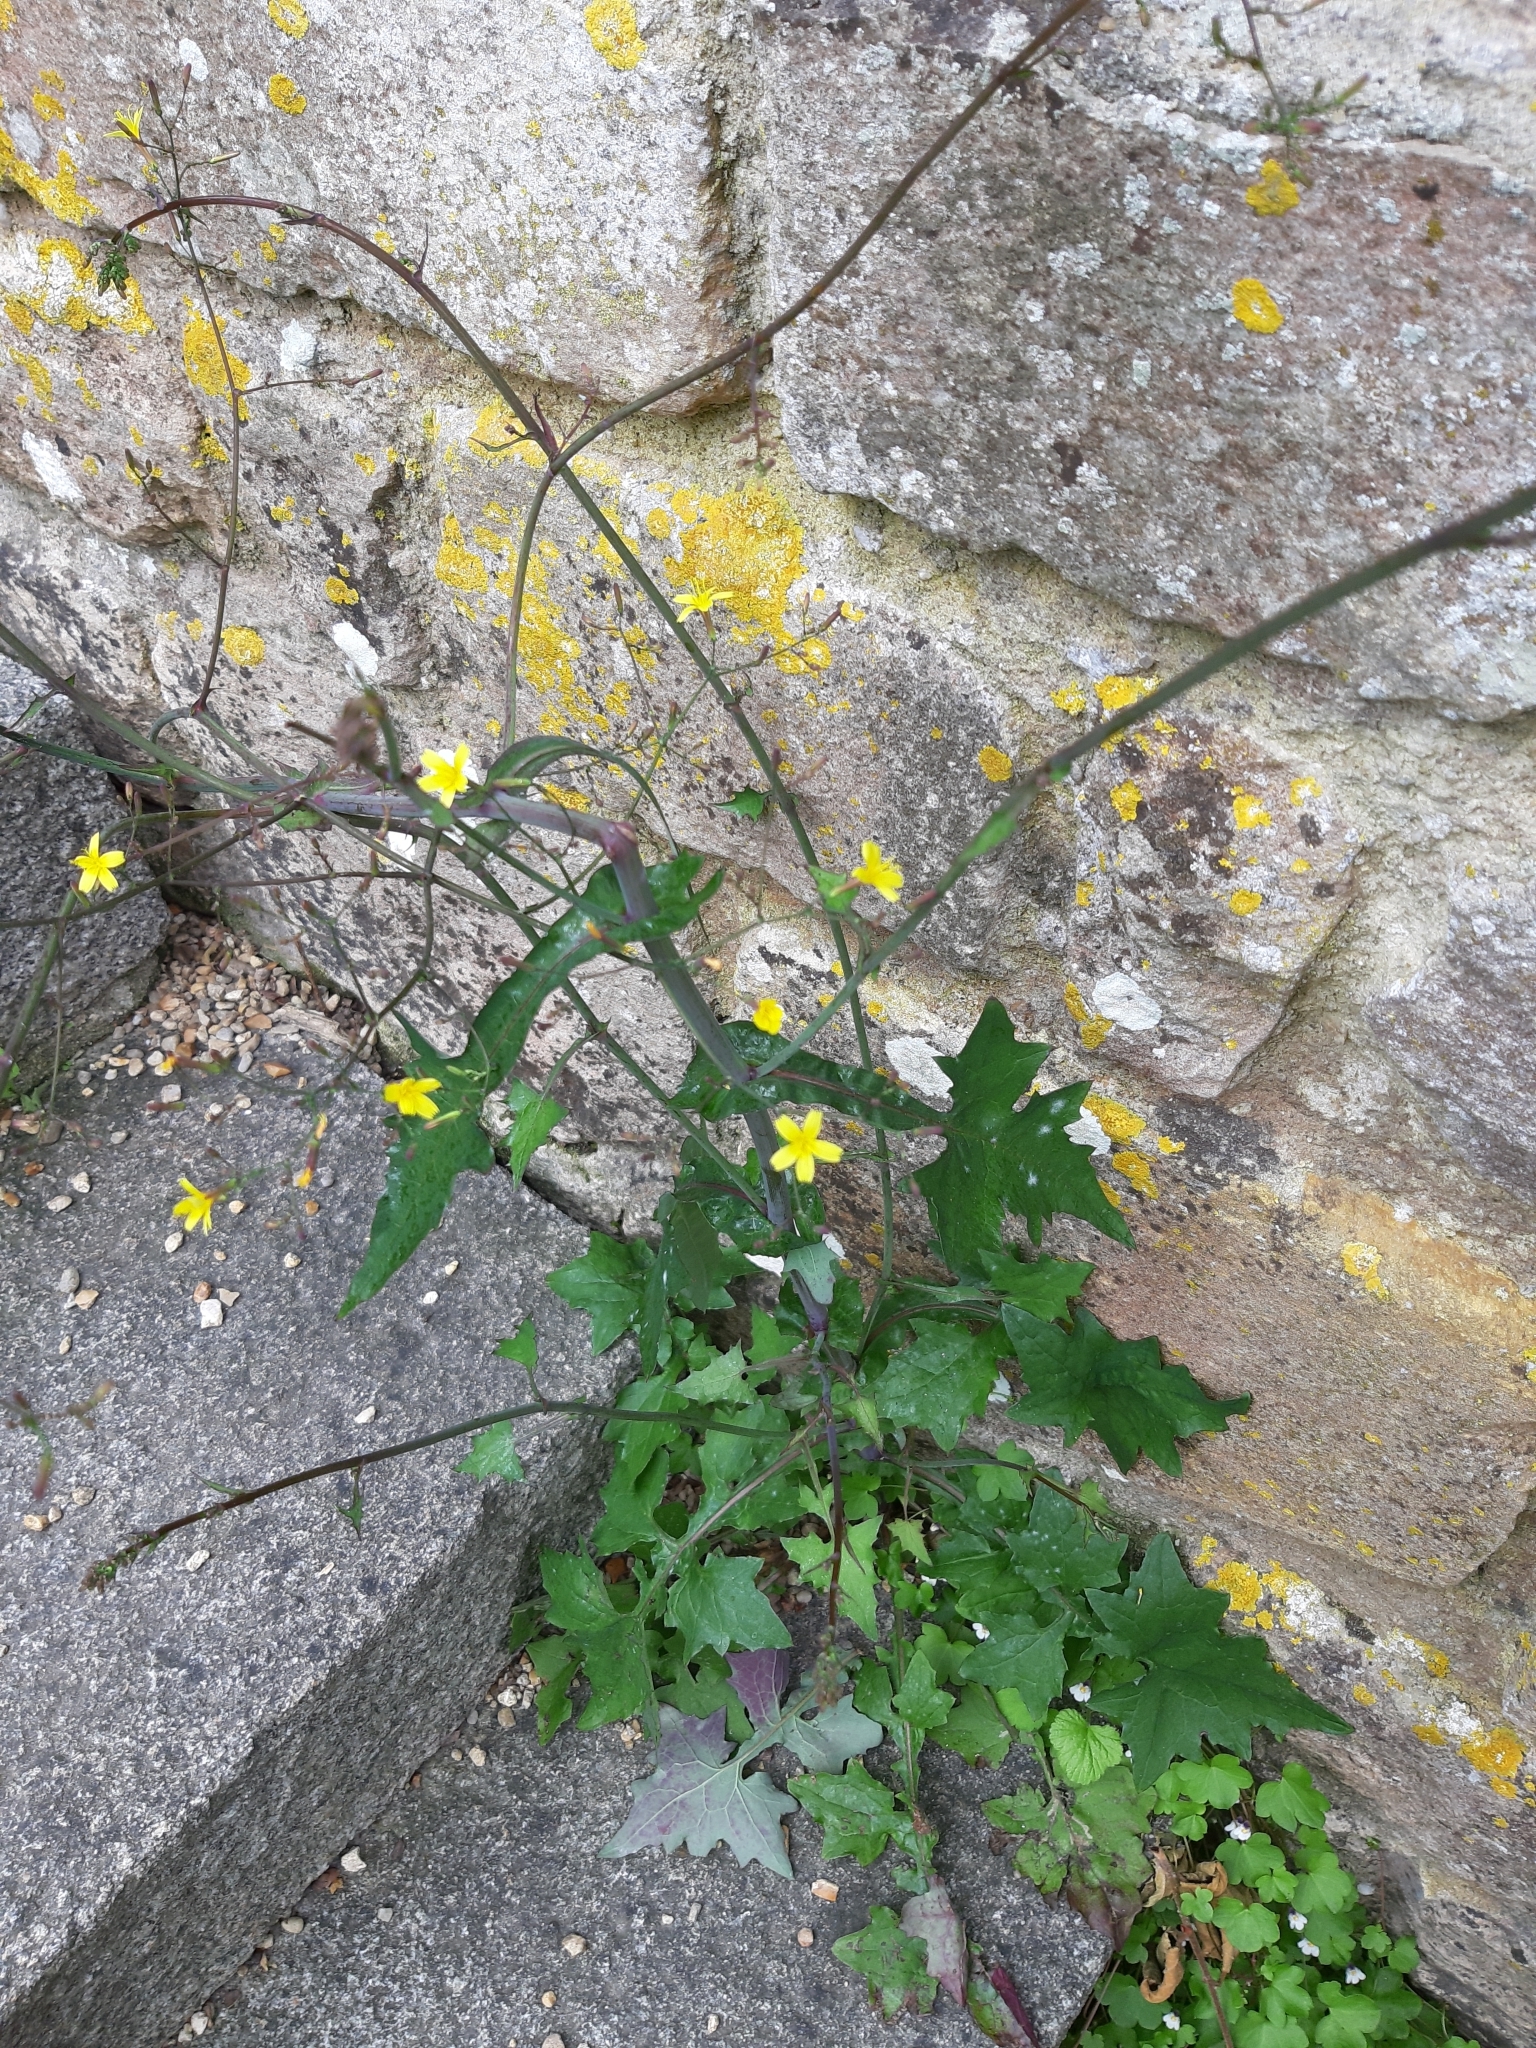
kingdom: Plantae
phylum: Tracheophyta
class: Magnoliopsida
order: Asterales
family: Asteraceae
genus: Mycelis
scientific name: Mycelis muralis
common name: Wall lettuce
